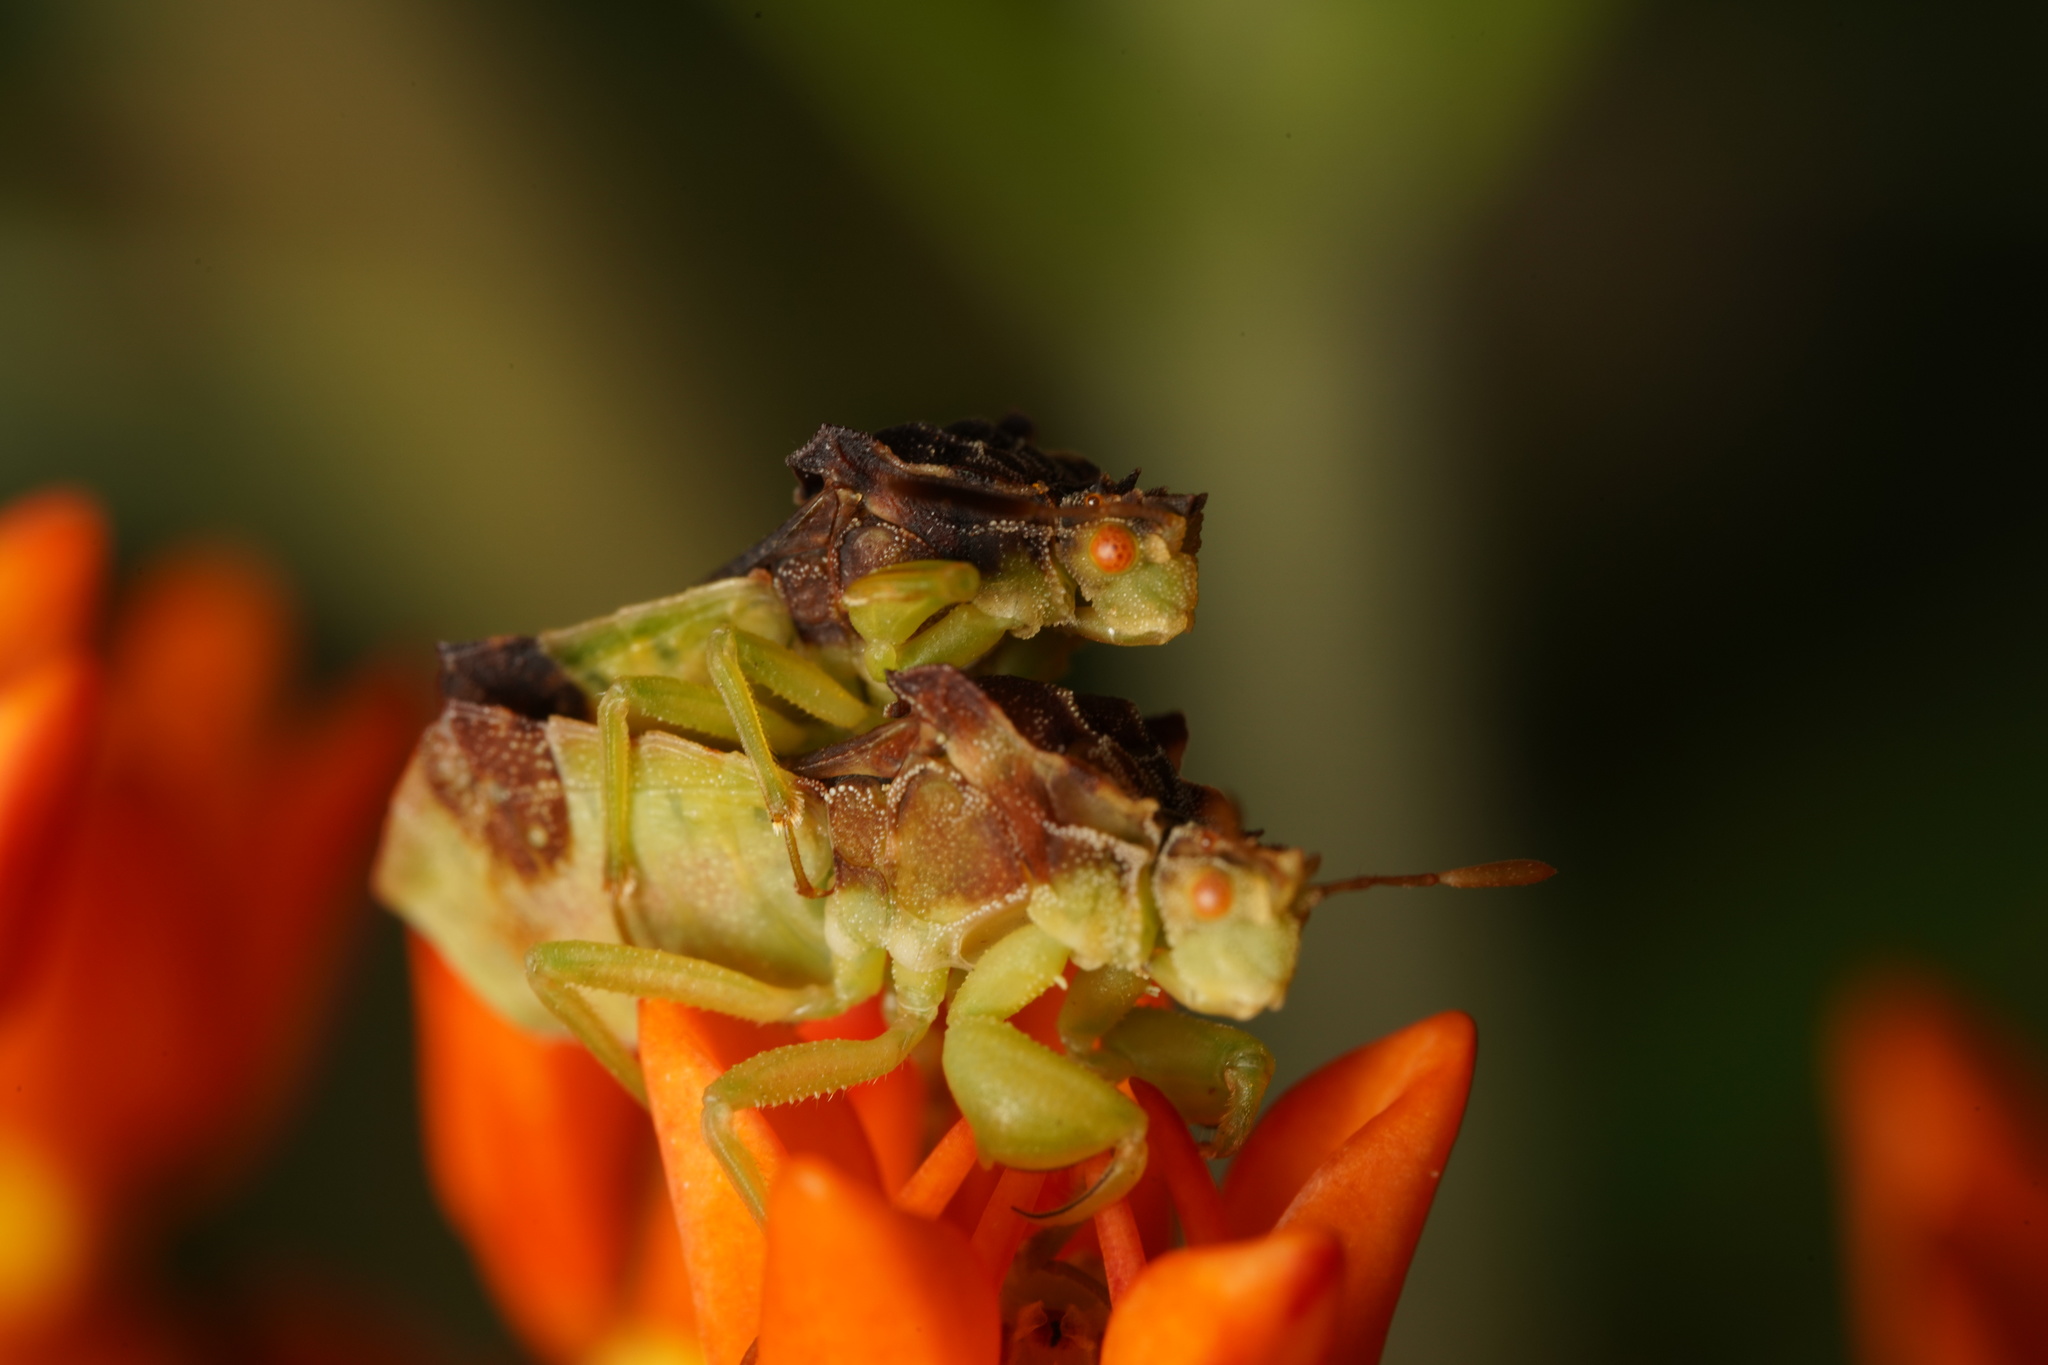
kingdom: Animalia
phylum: Arthropoda
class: Insecta
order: Hemiptera
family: Reduviidae
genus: Phymata
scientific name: Phymata pennsylvanica
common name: Pennsylvania ambush bug
